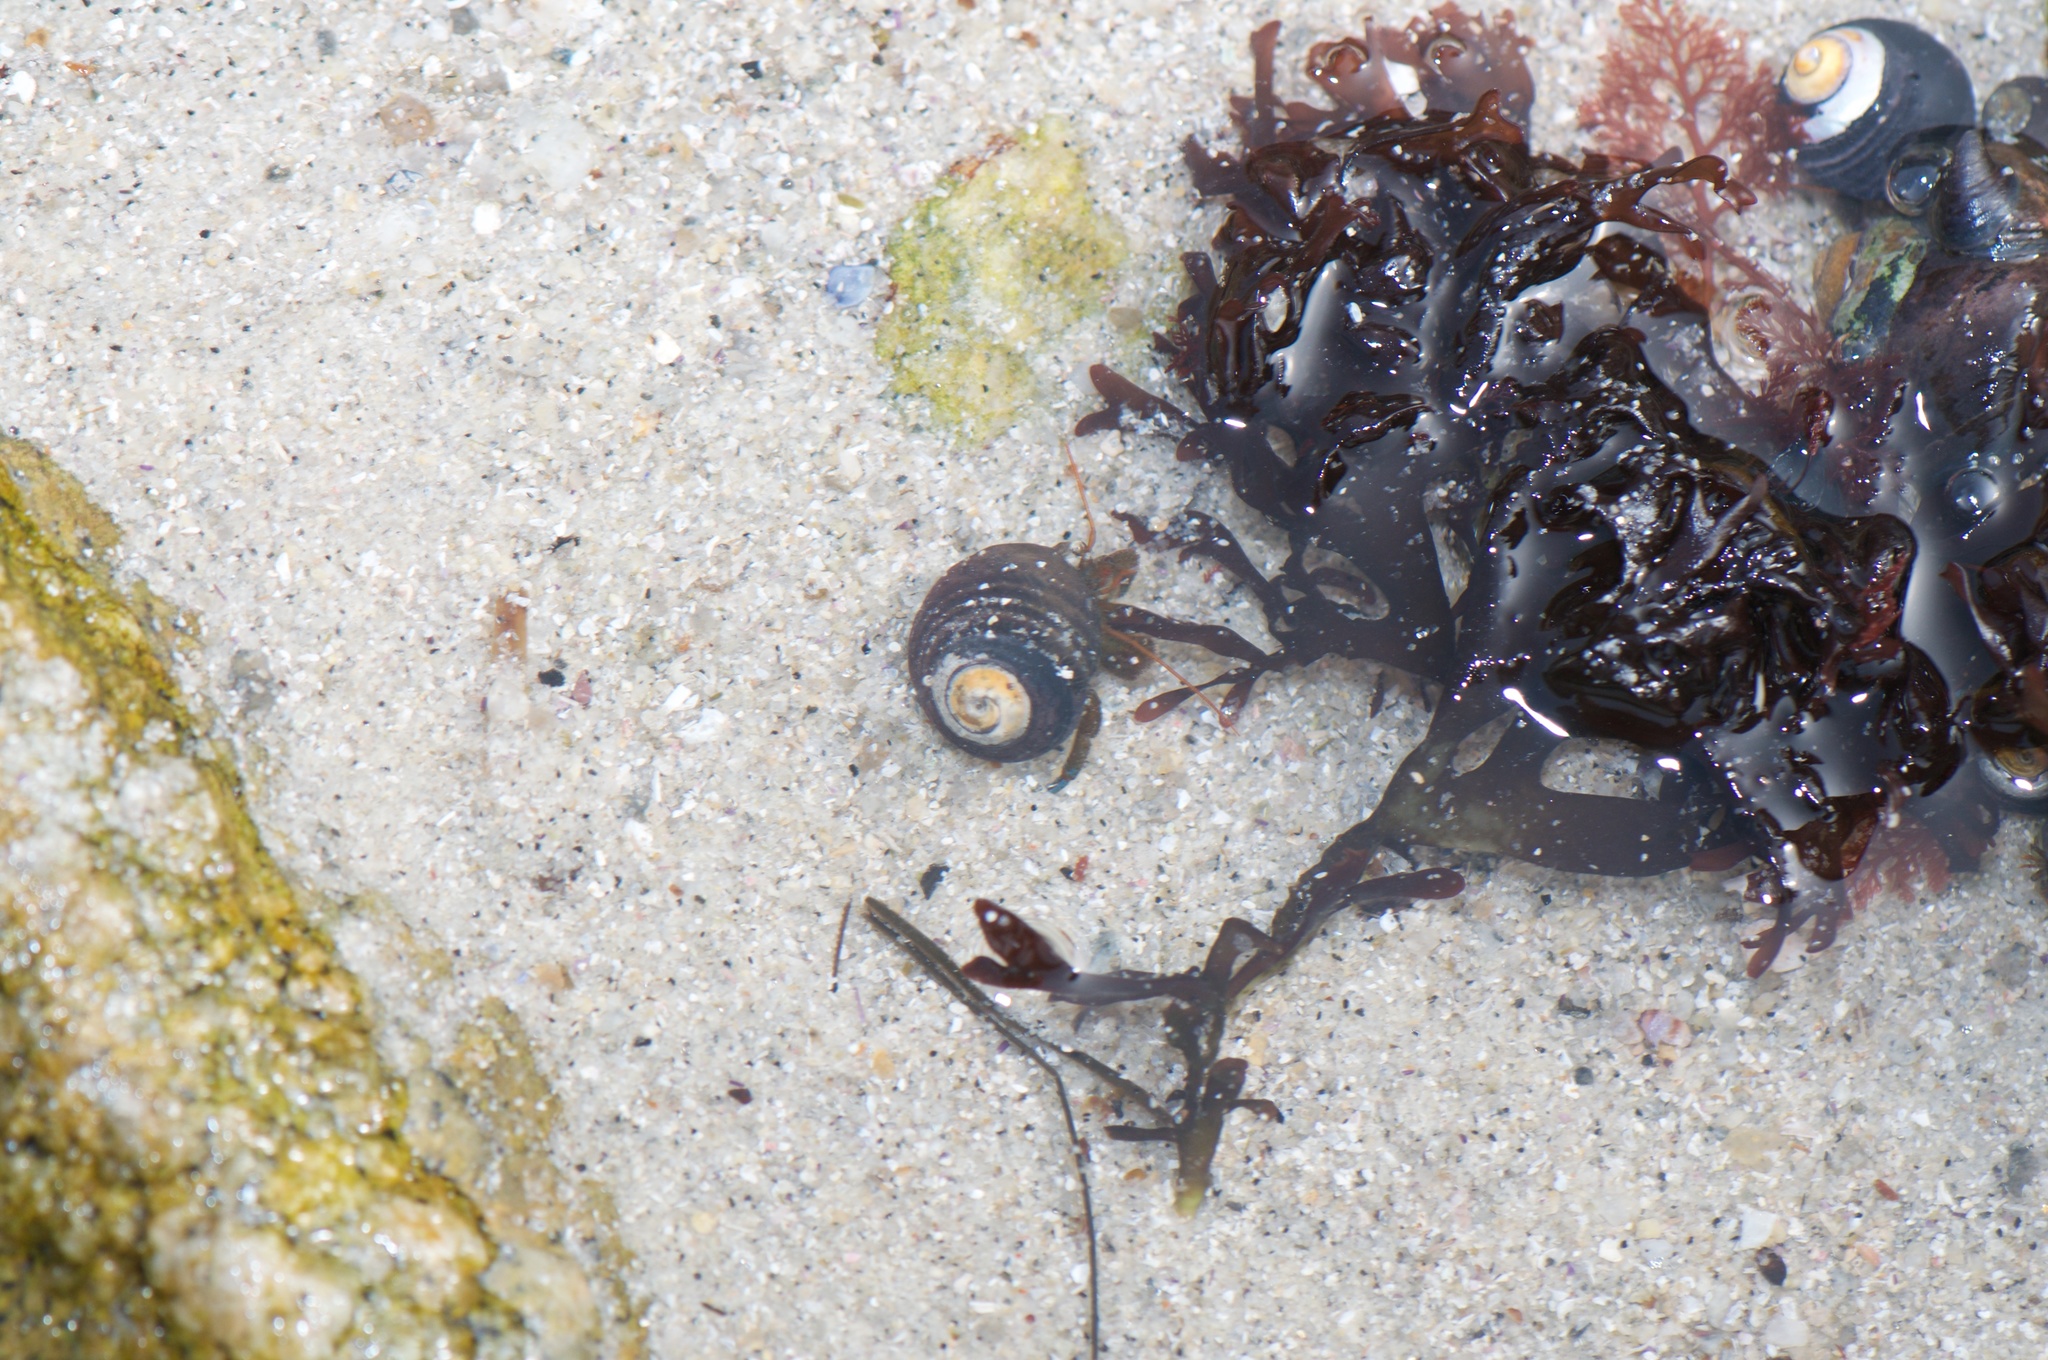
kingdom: Animalia
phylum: Arthropoda
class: Malacostraca
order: Decapoda
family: Paguridae
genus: Pagurus
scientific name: Pagurus samuelis
